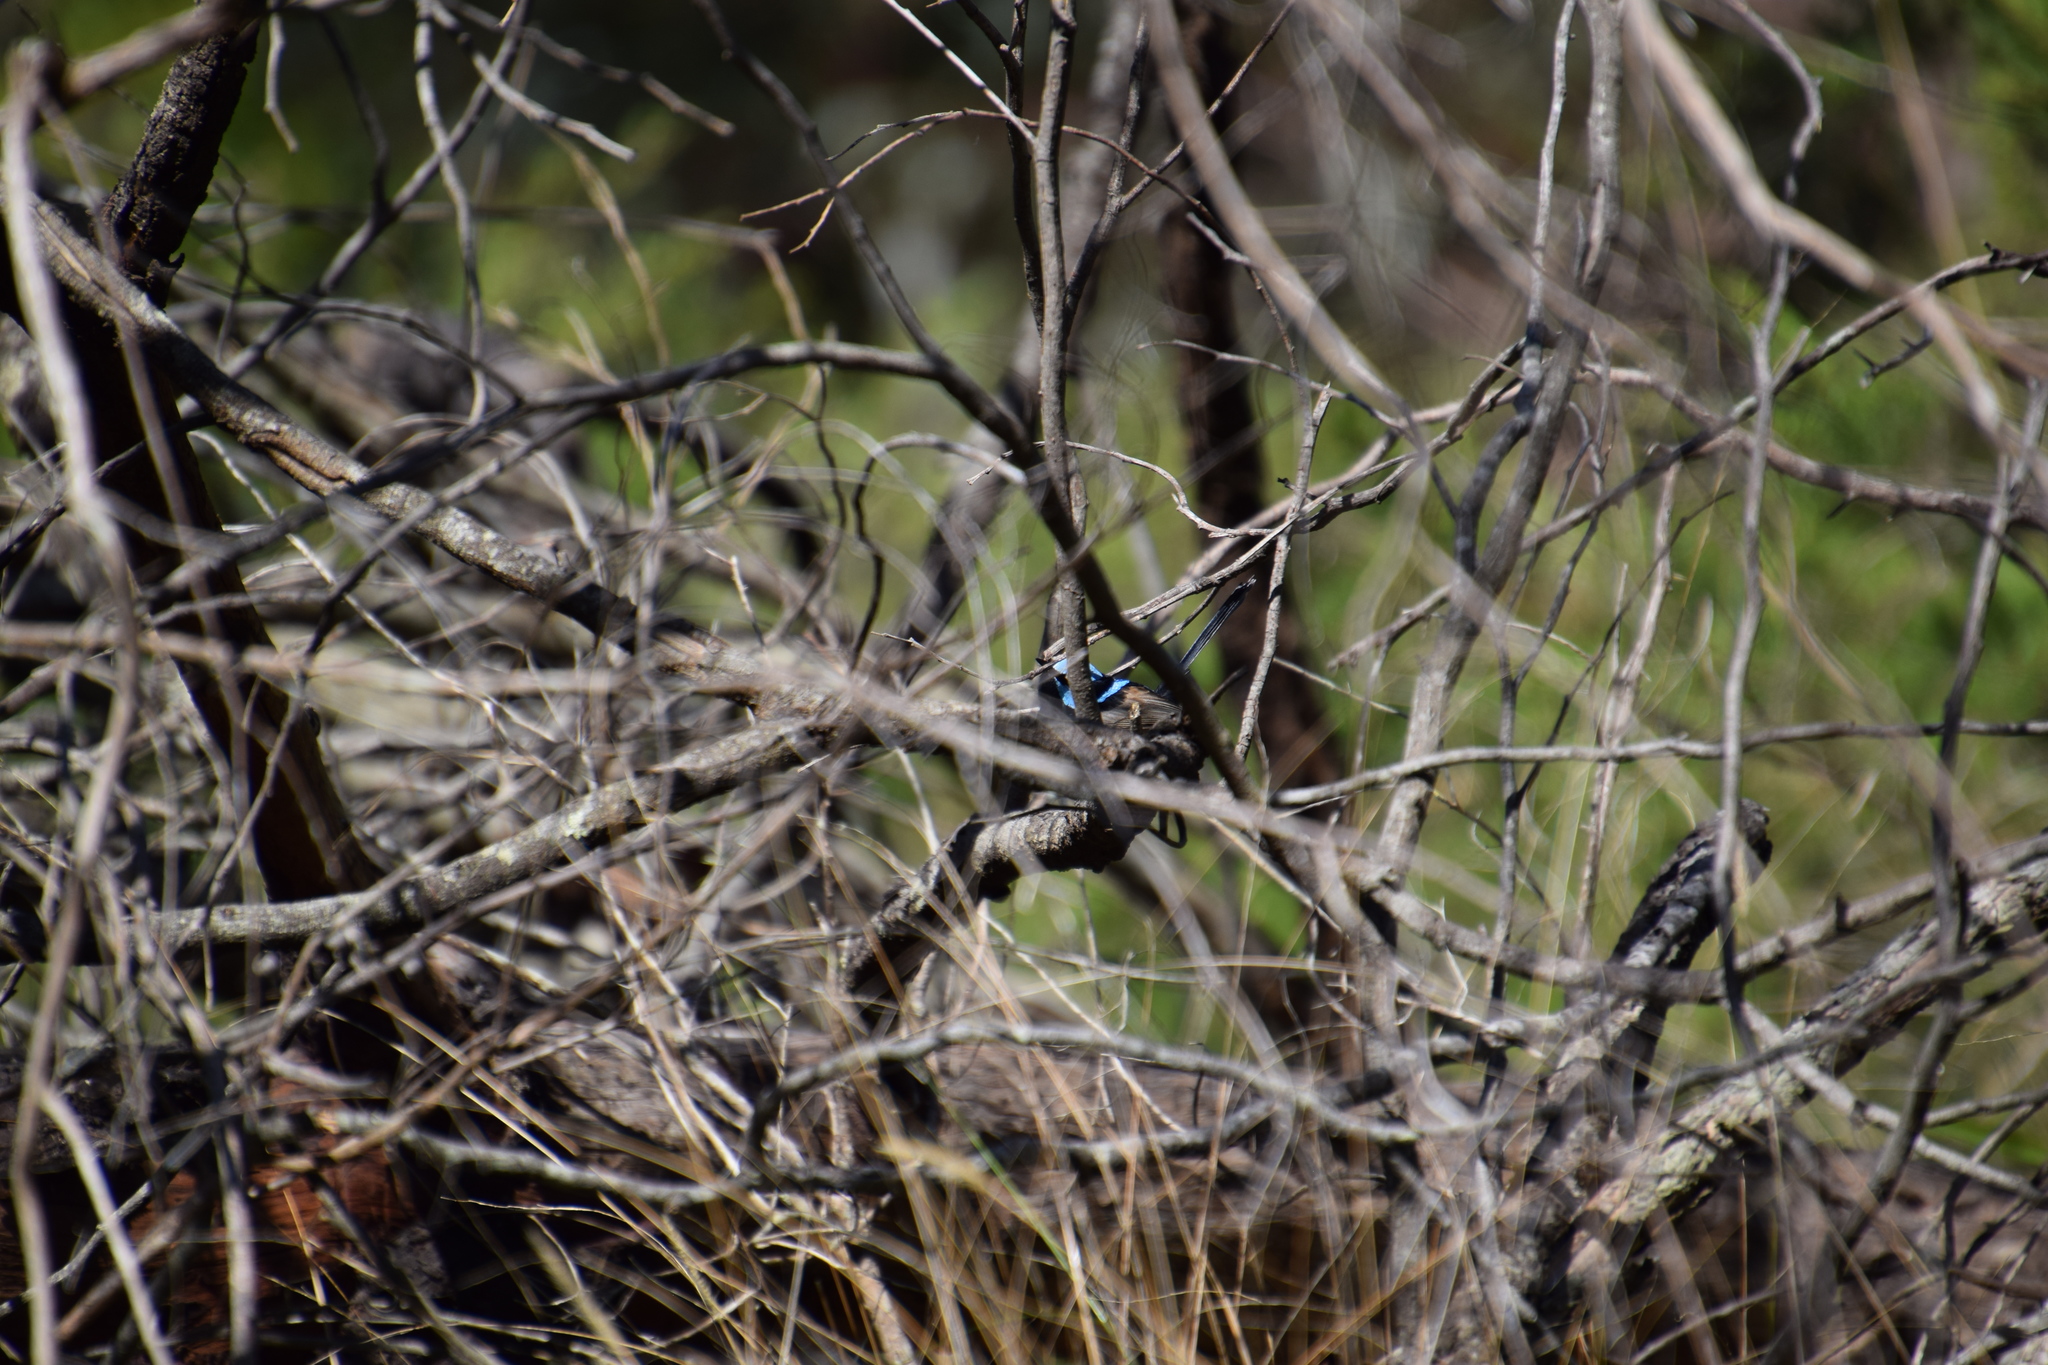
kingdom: Animalia
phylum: Chordata
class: Aves
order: Passeriformes
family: Maluridae
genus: Malurus
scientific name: Malurus cyaneus
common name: Superb fairywren
